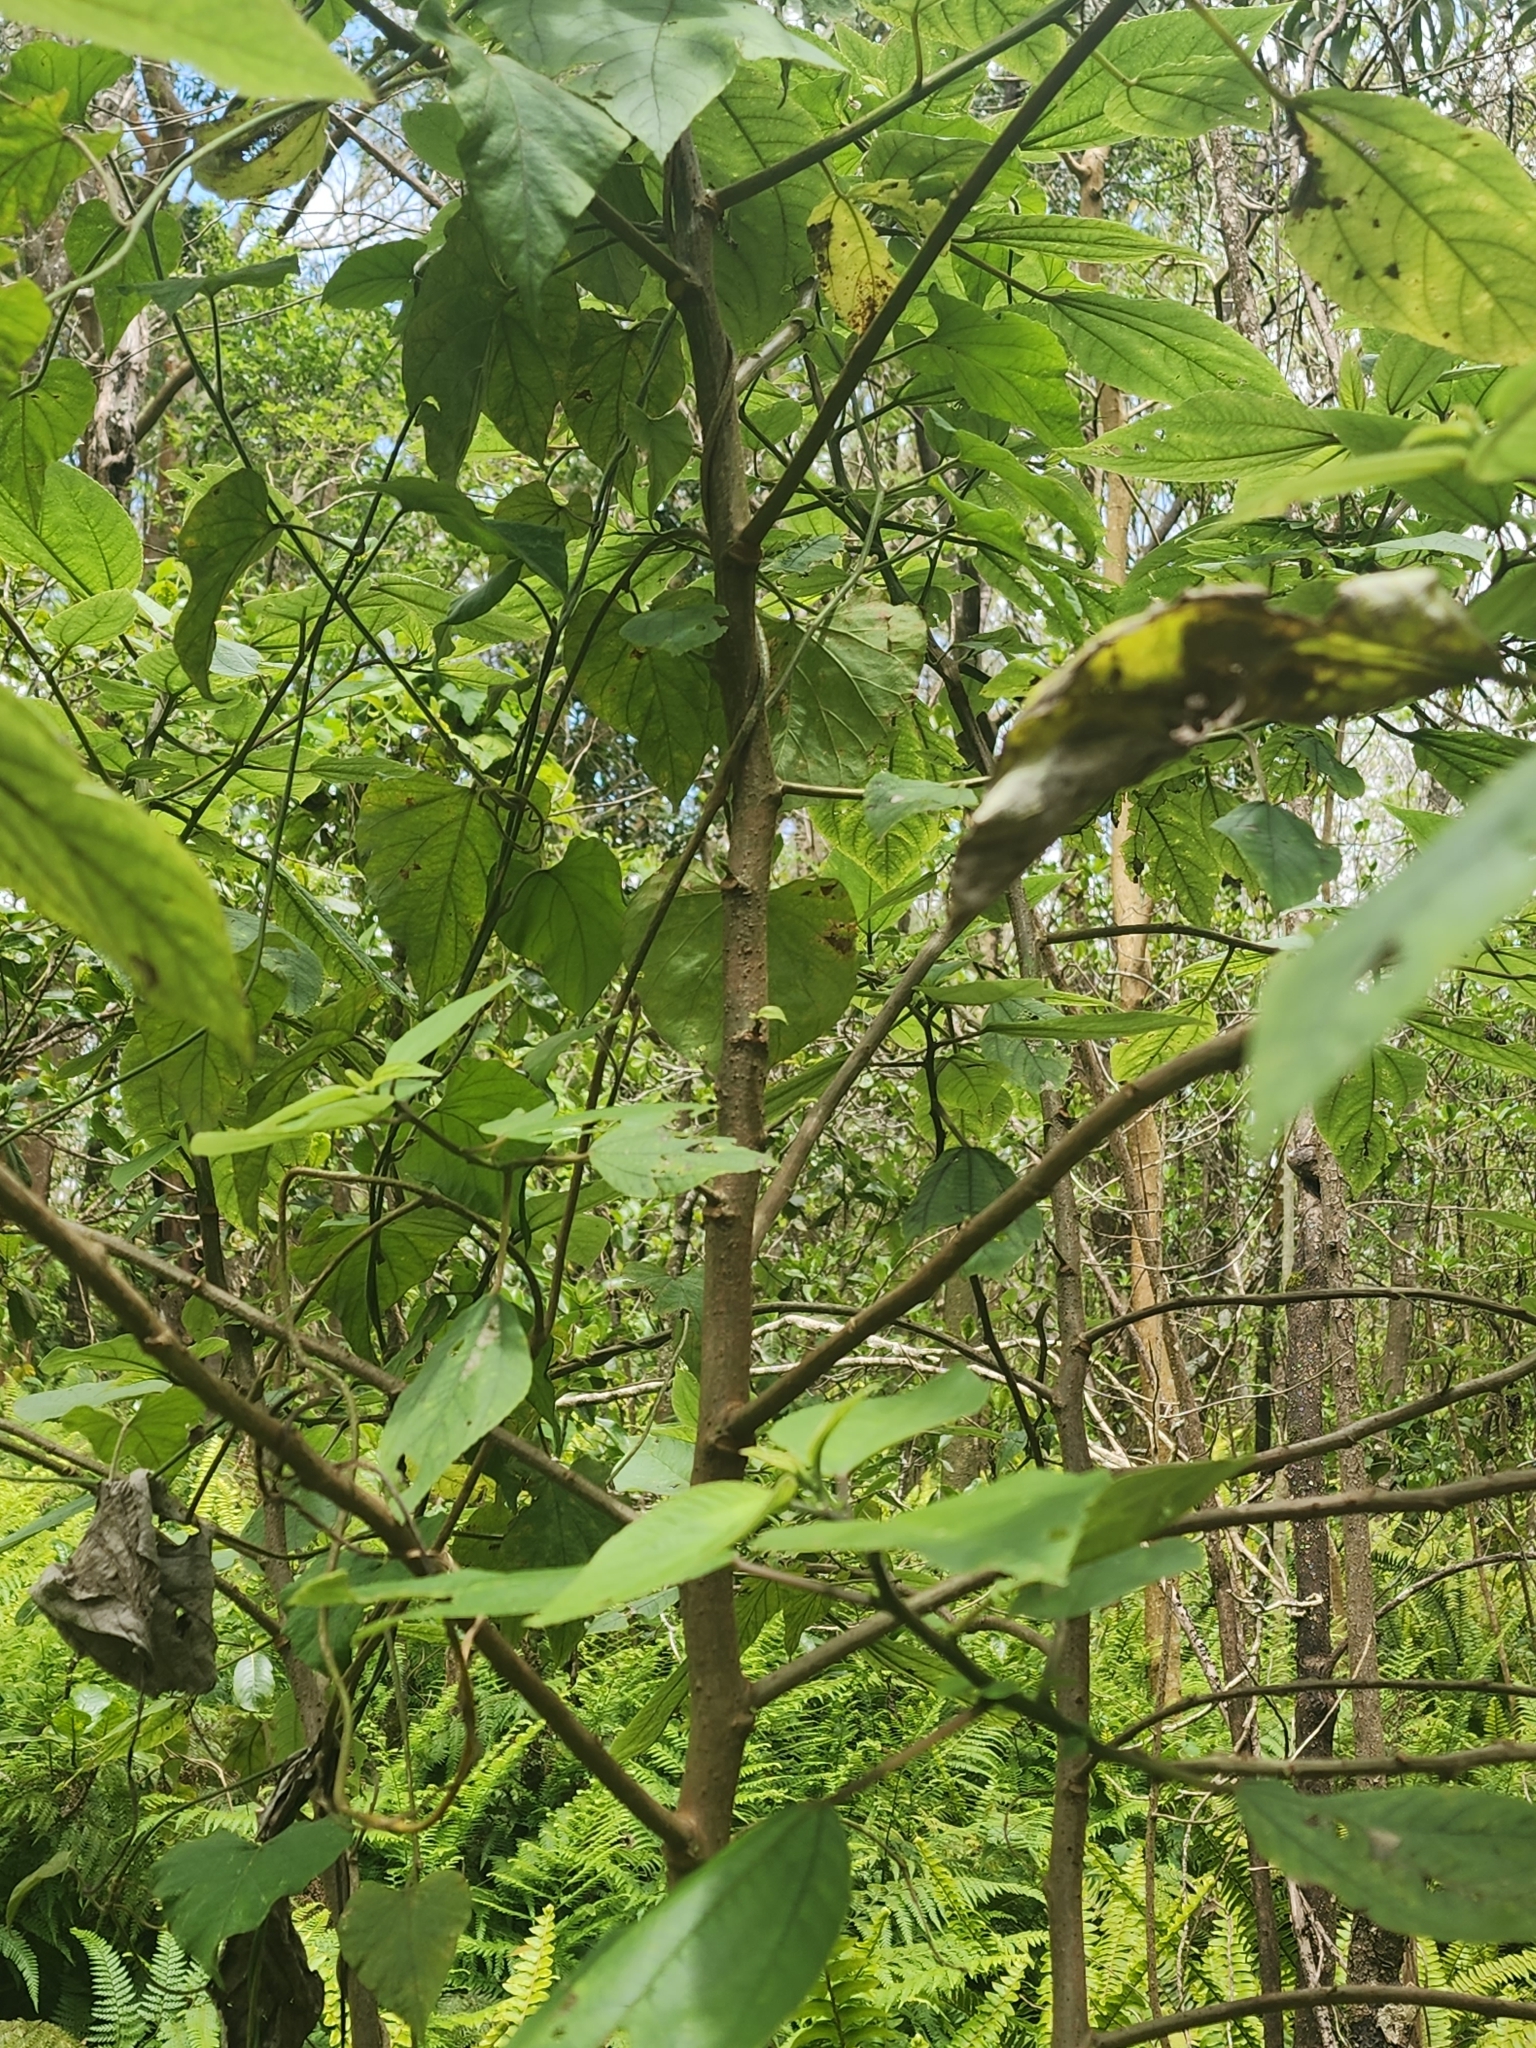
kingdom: Plantae
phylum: Tracheophyta
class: Magnoliopsida
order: Rosales
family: Urticaceae
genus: Pipturus
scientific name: Pipturus albidus
